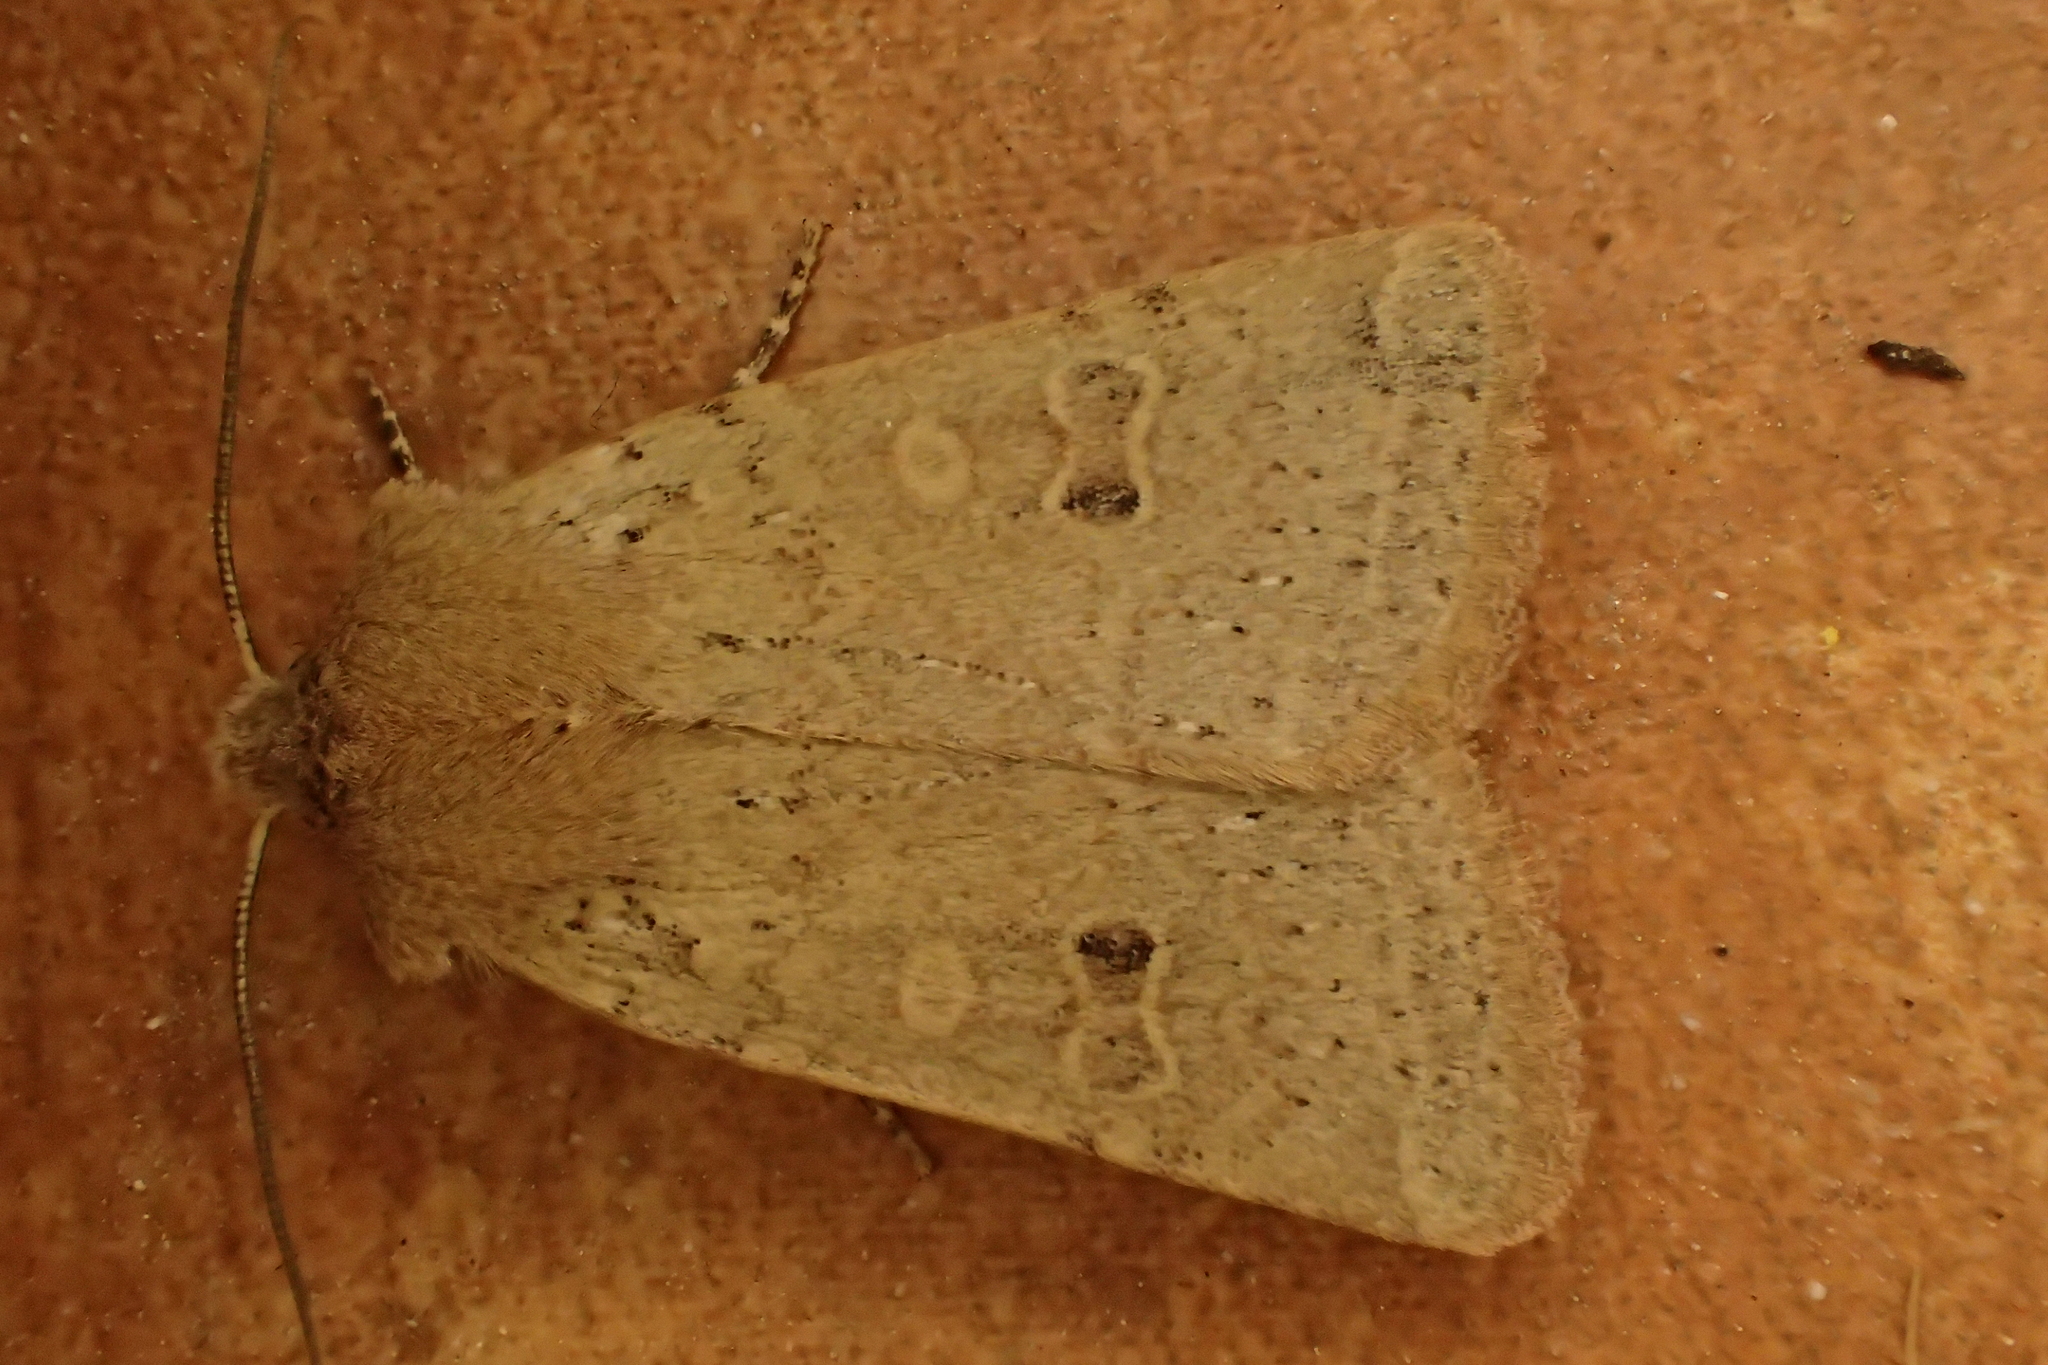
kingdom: Animalia
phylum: Arthropoda
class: Insecta
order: Lepidoptera
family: Noctuidae
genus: Agrochola
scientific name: Agrochola ruticilla
